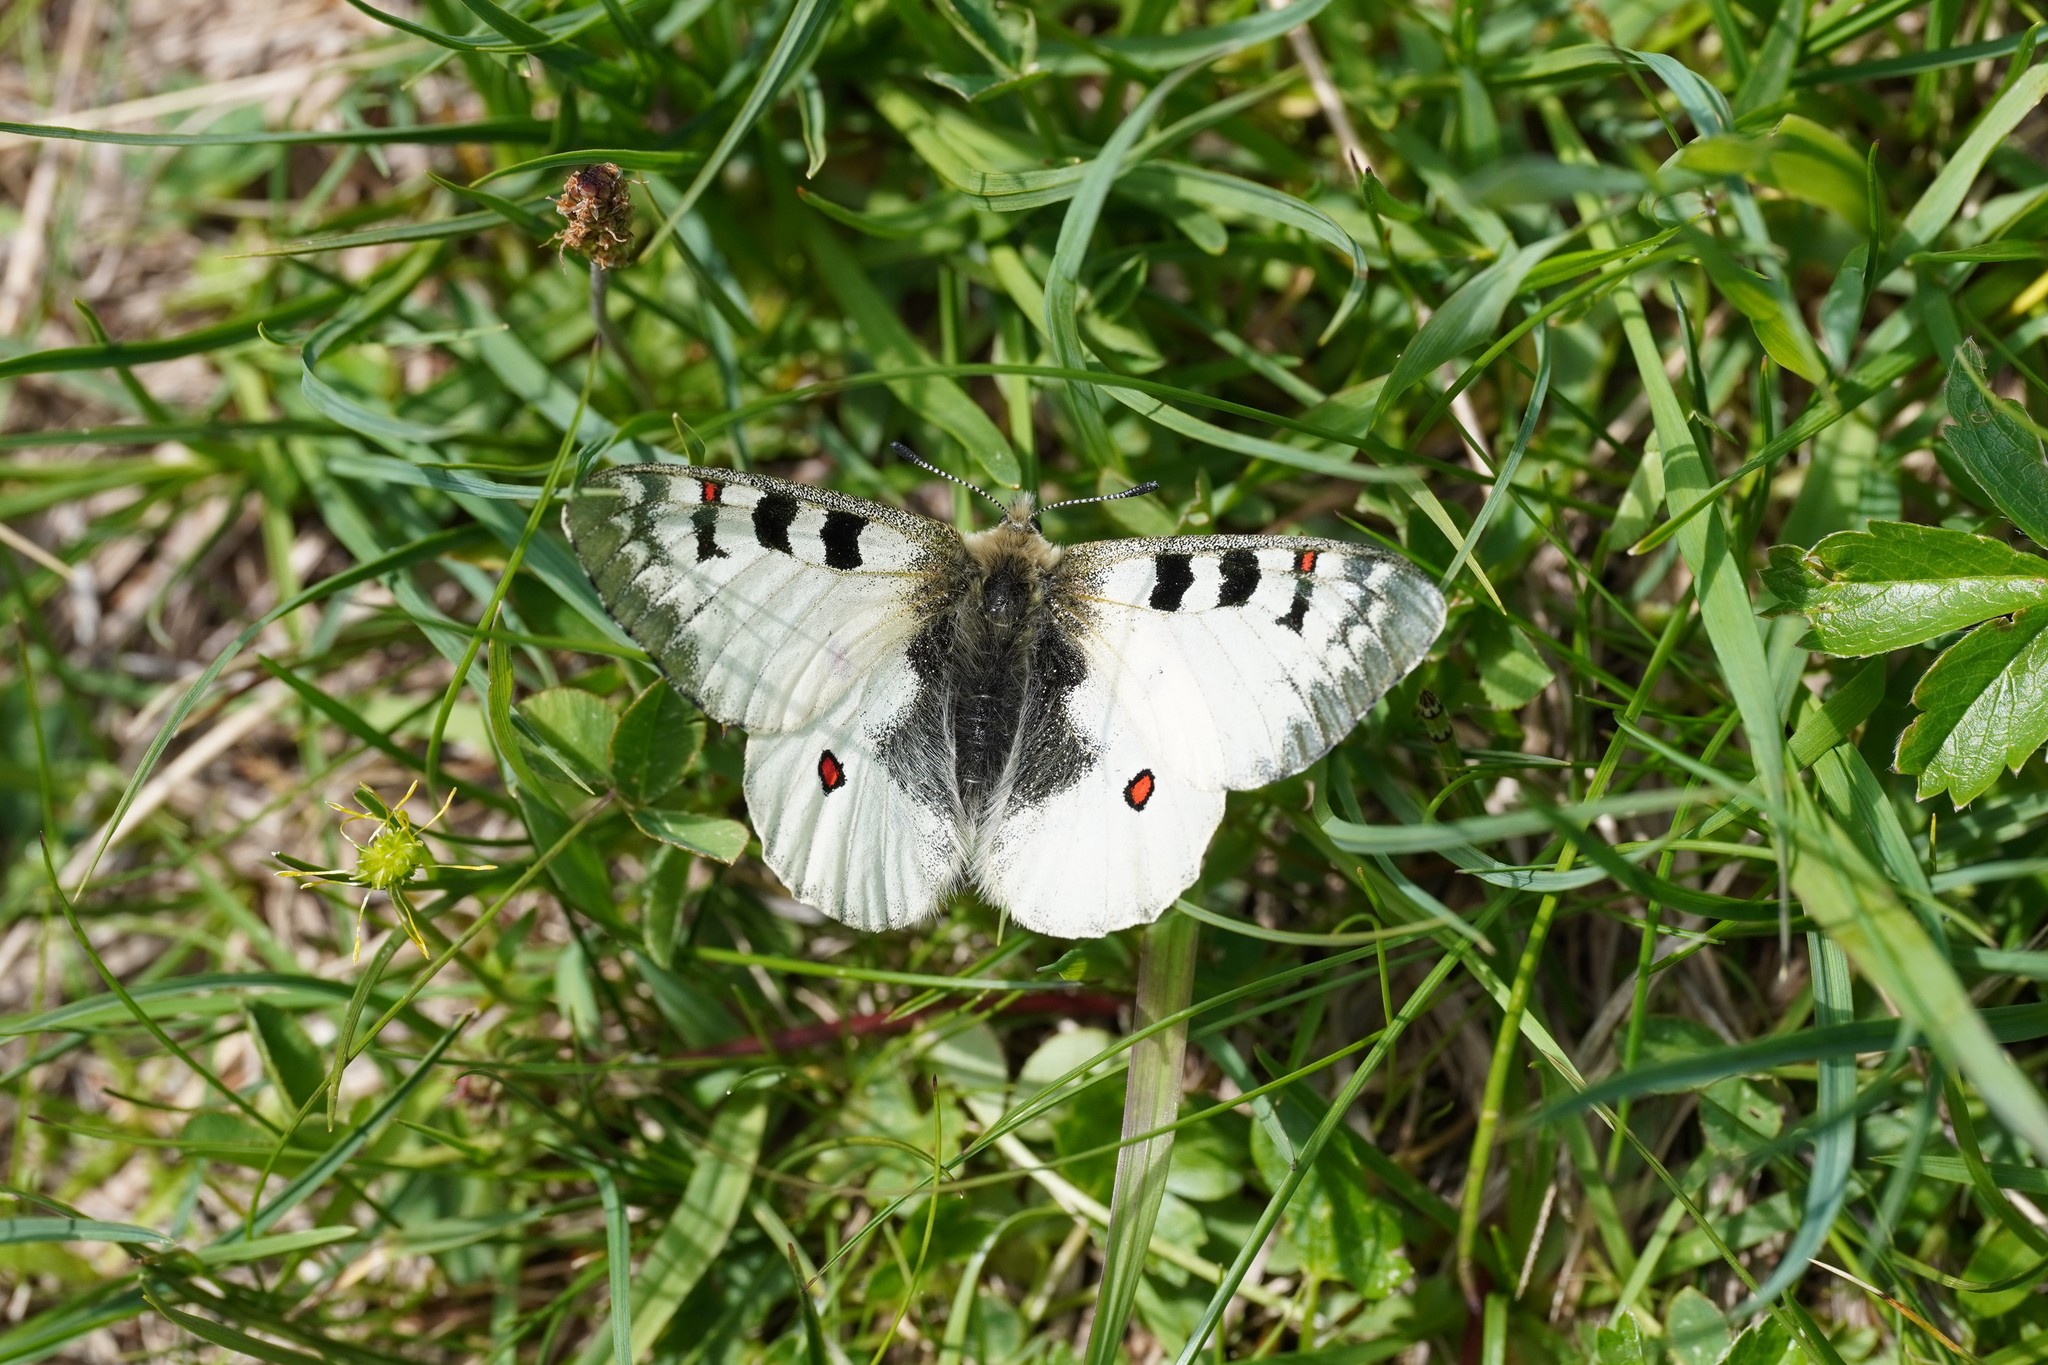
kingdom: Animalia
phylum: Arthropoda
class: Insecta
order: Lepidoptera
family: Papilionidae
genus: Parnassius
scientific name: Parnassius phoebus
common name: Small apollo
